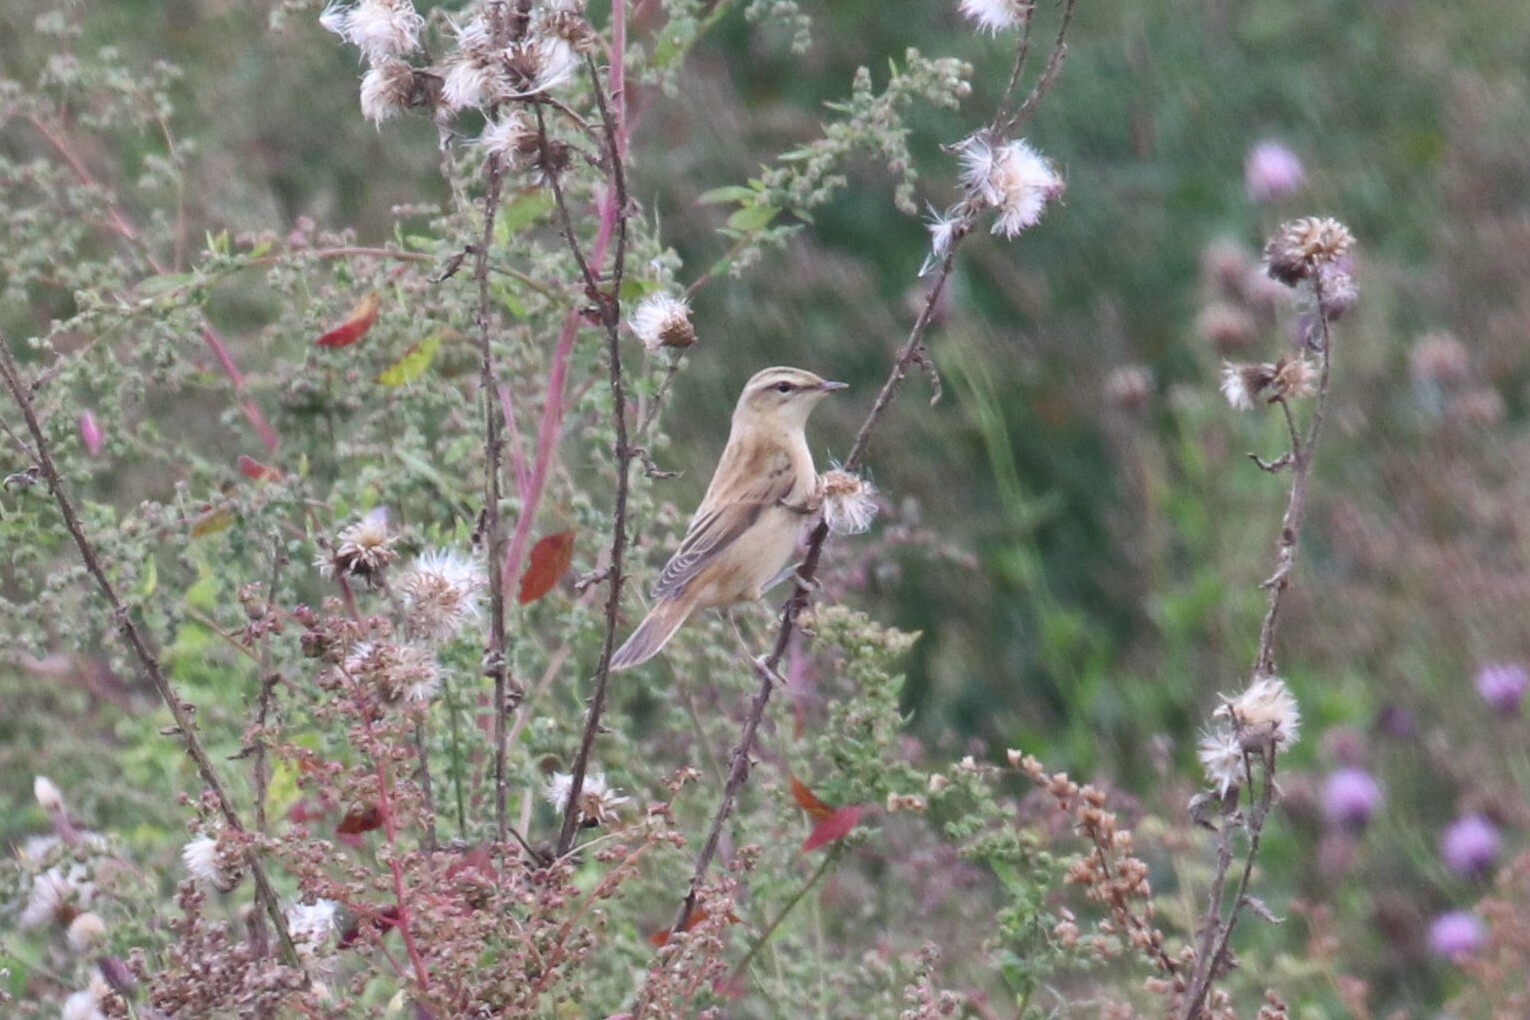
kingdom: Animalia
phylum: Chordata
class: Aves
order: Passeriformes
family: Acrocephalidae
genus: Acrocephalus
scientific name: Acrocephalus schoenobaenus
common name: Sedge warbler
